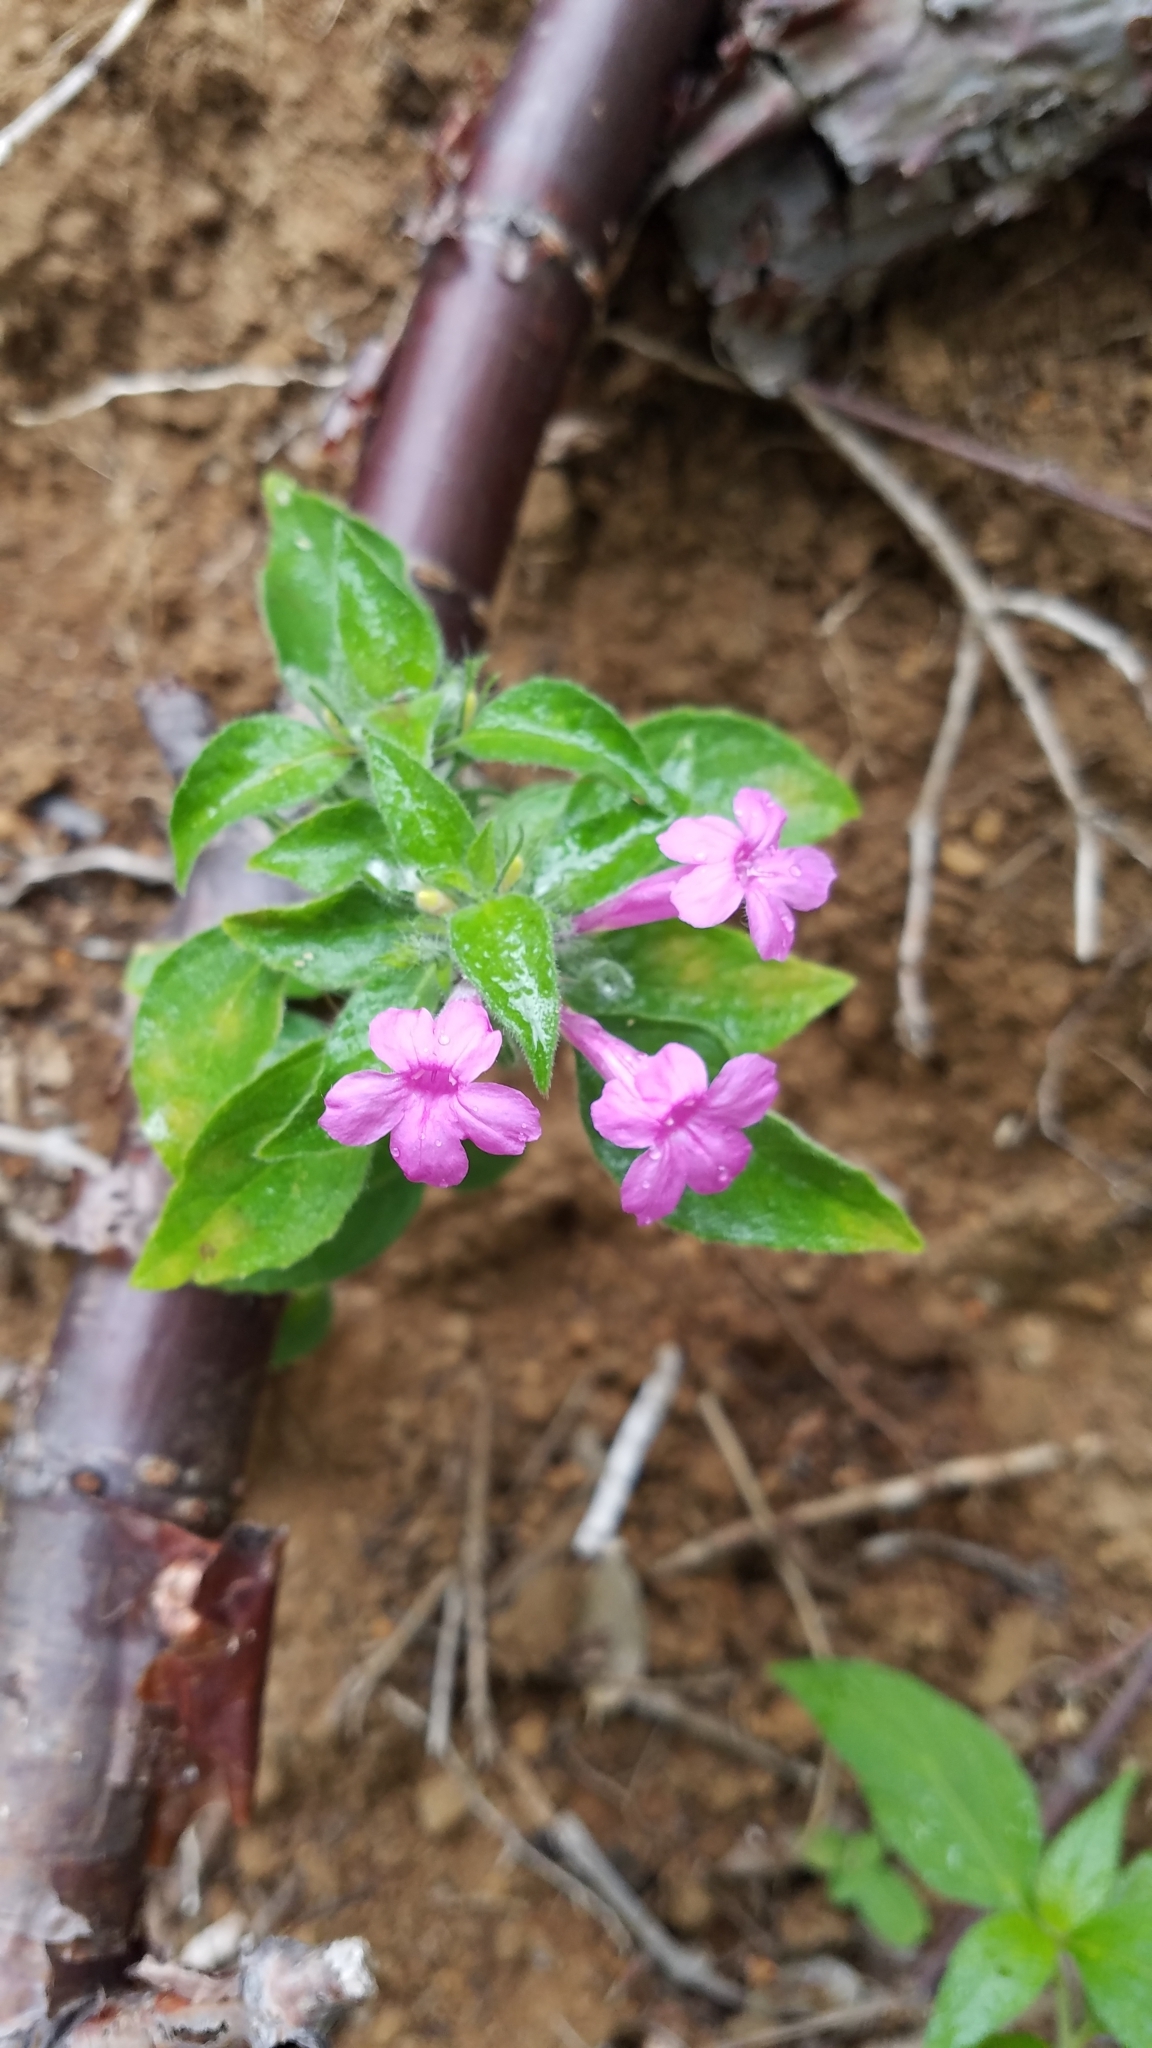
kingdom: Plantae
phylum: Tracheophyta
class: Magnoliopsida
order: Lamiales
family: Acanthaceae
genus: Ruellia
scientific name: Ruellia inundata
